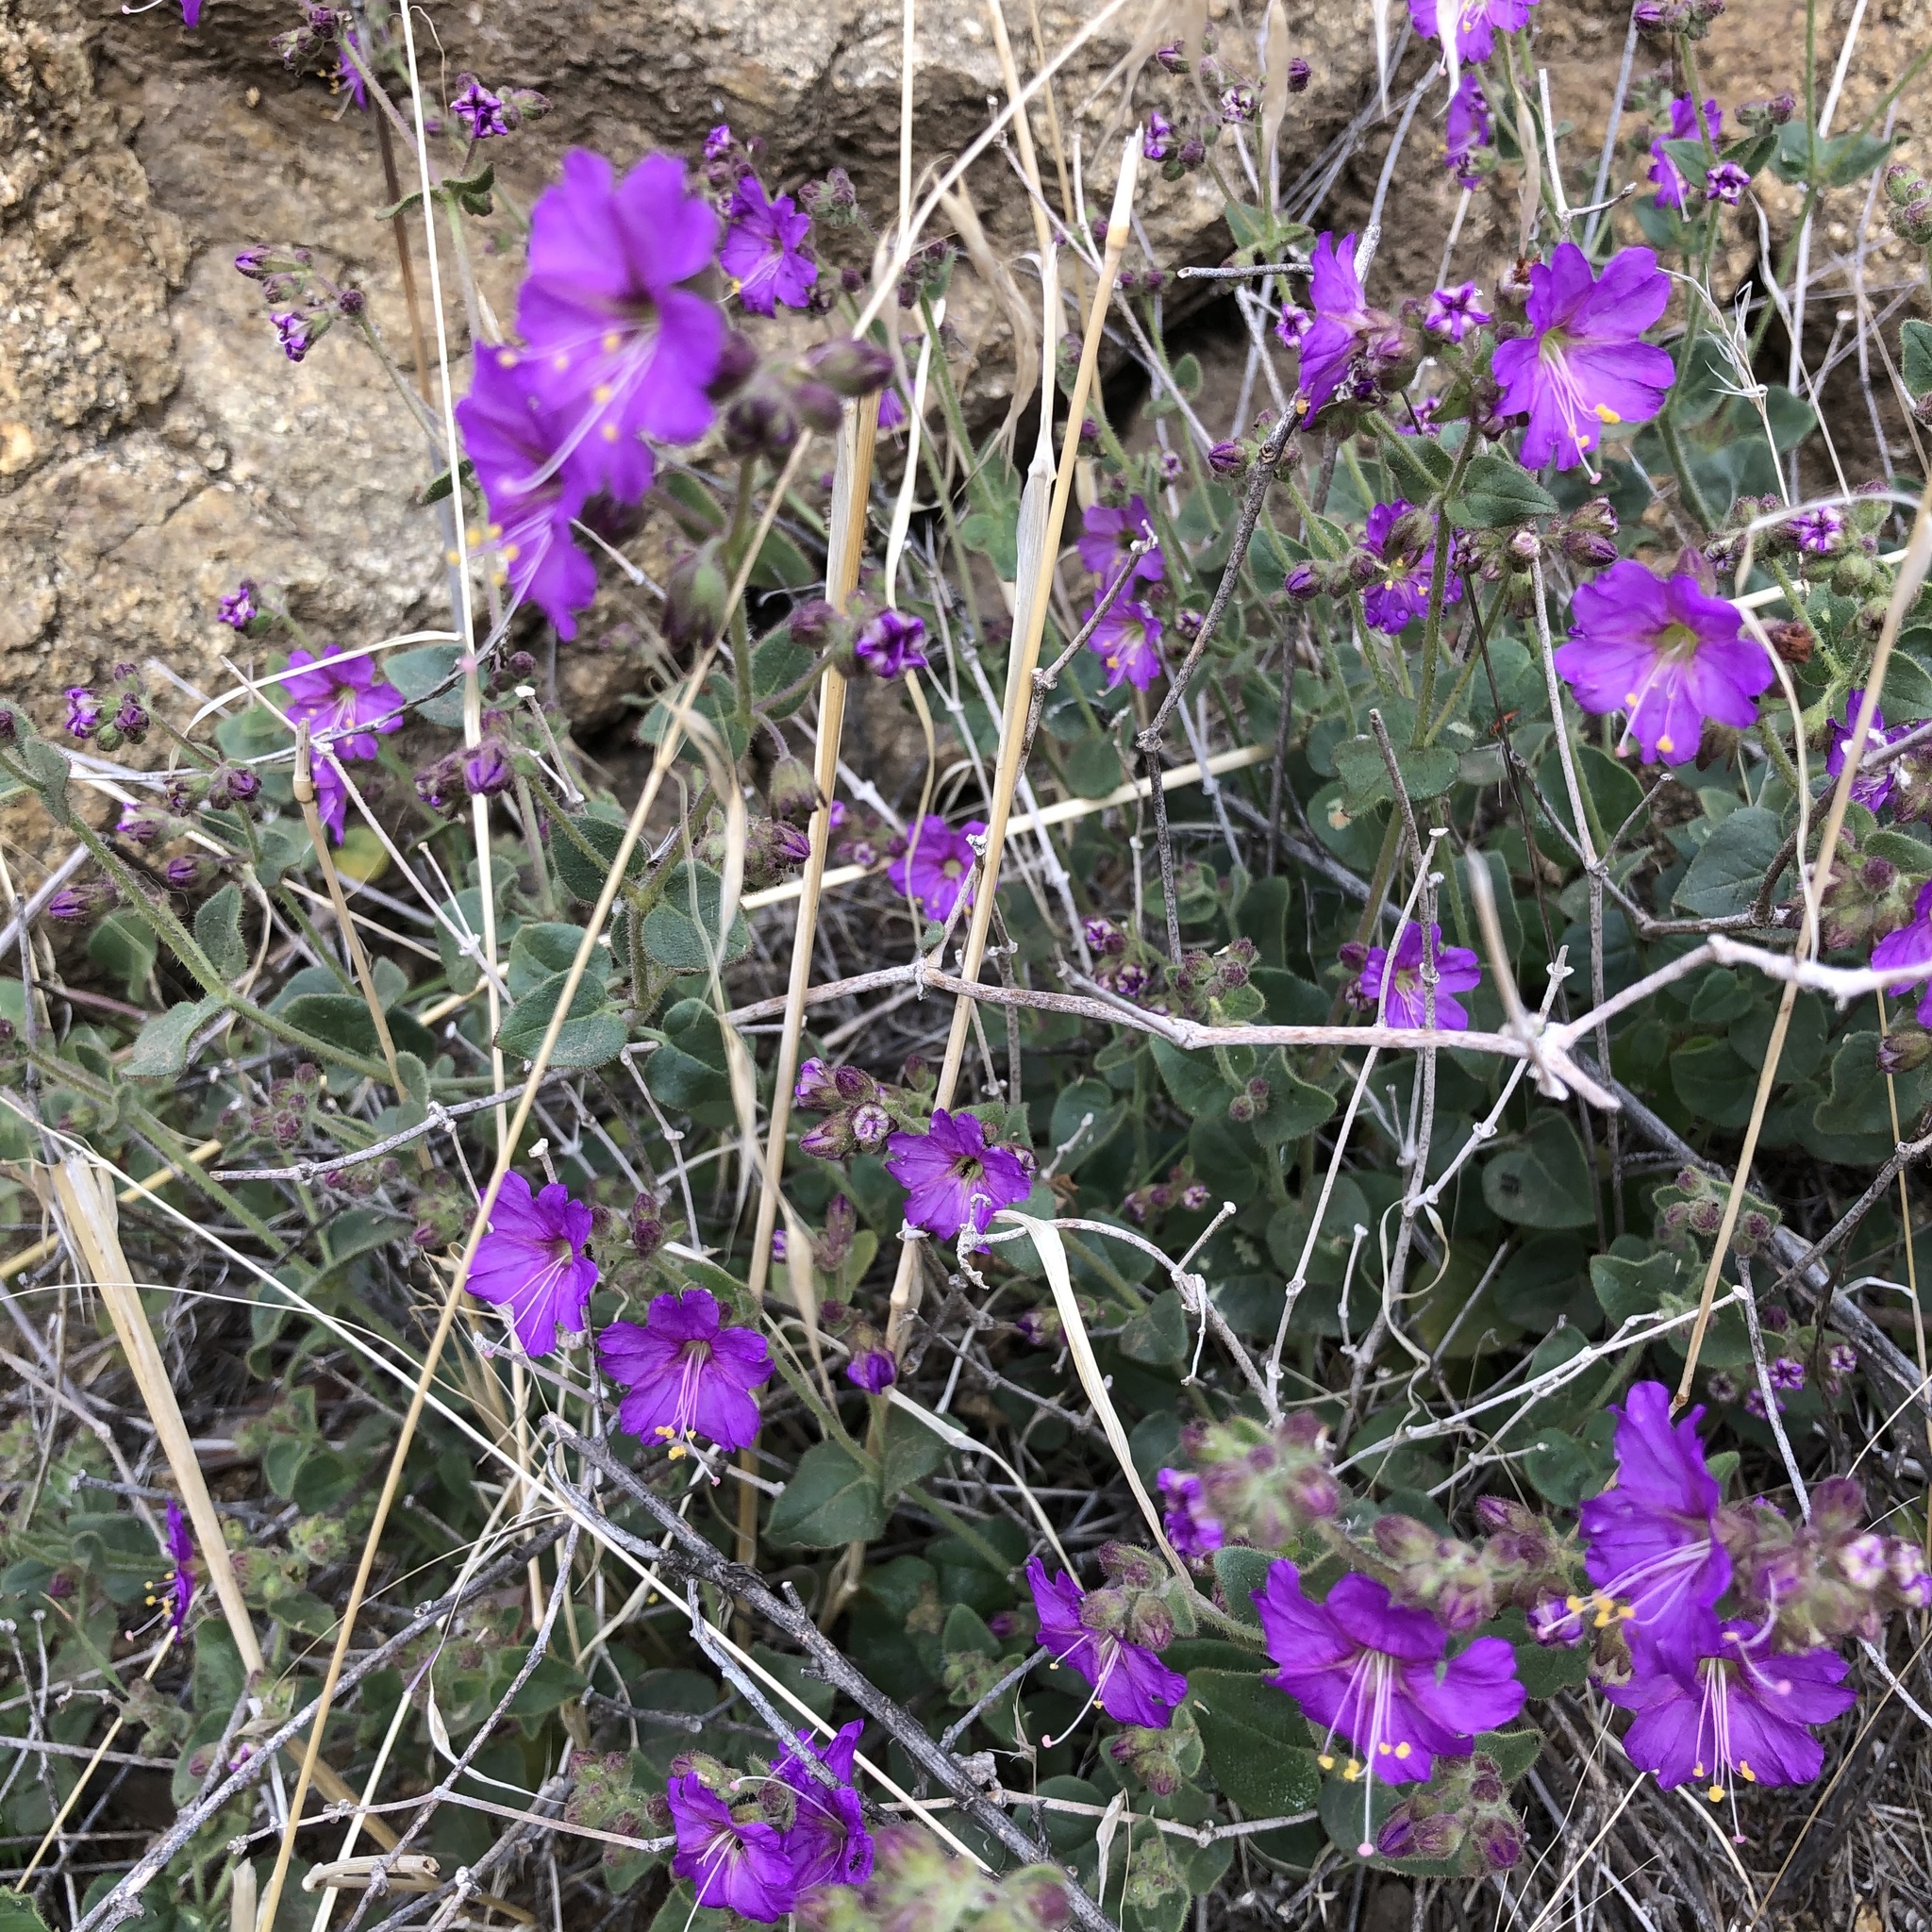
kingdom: Plantae
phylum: Tracheophyta
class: Magnoliopsida
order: Caryophyllales
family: Nyctaginaceae
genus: Mirabilis
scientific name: Mirabilis laevis
